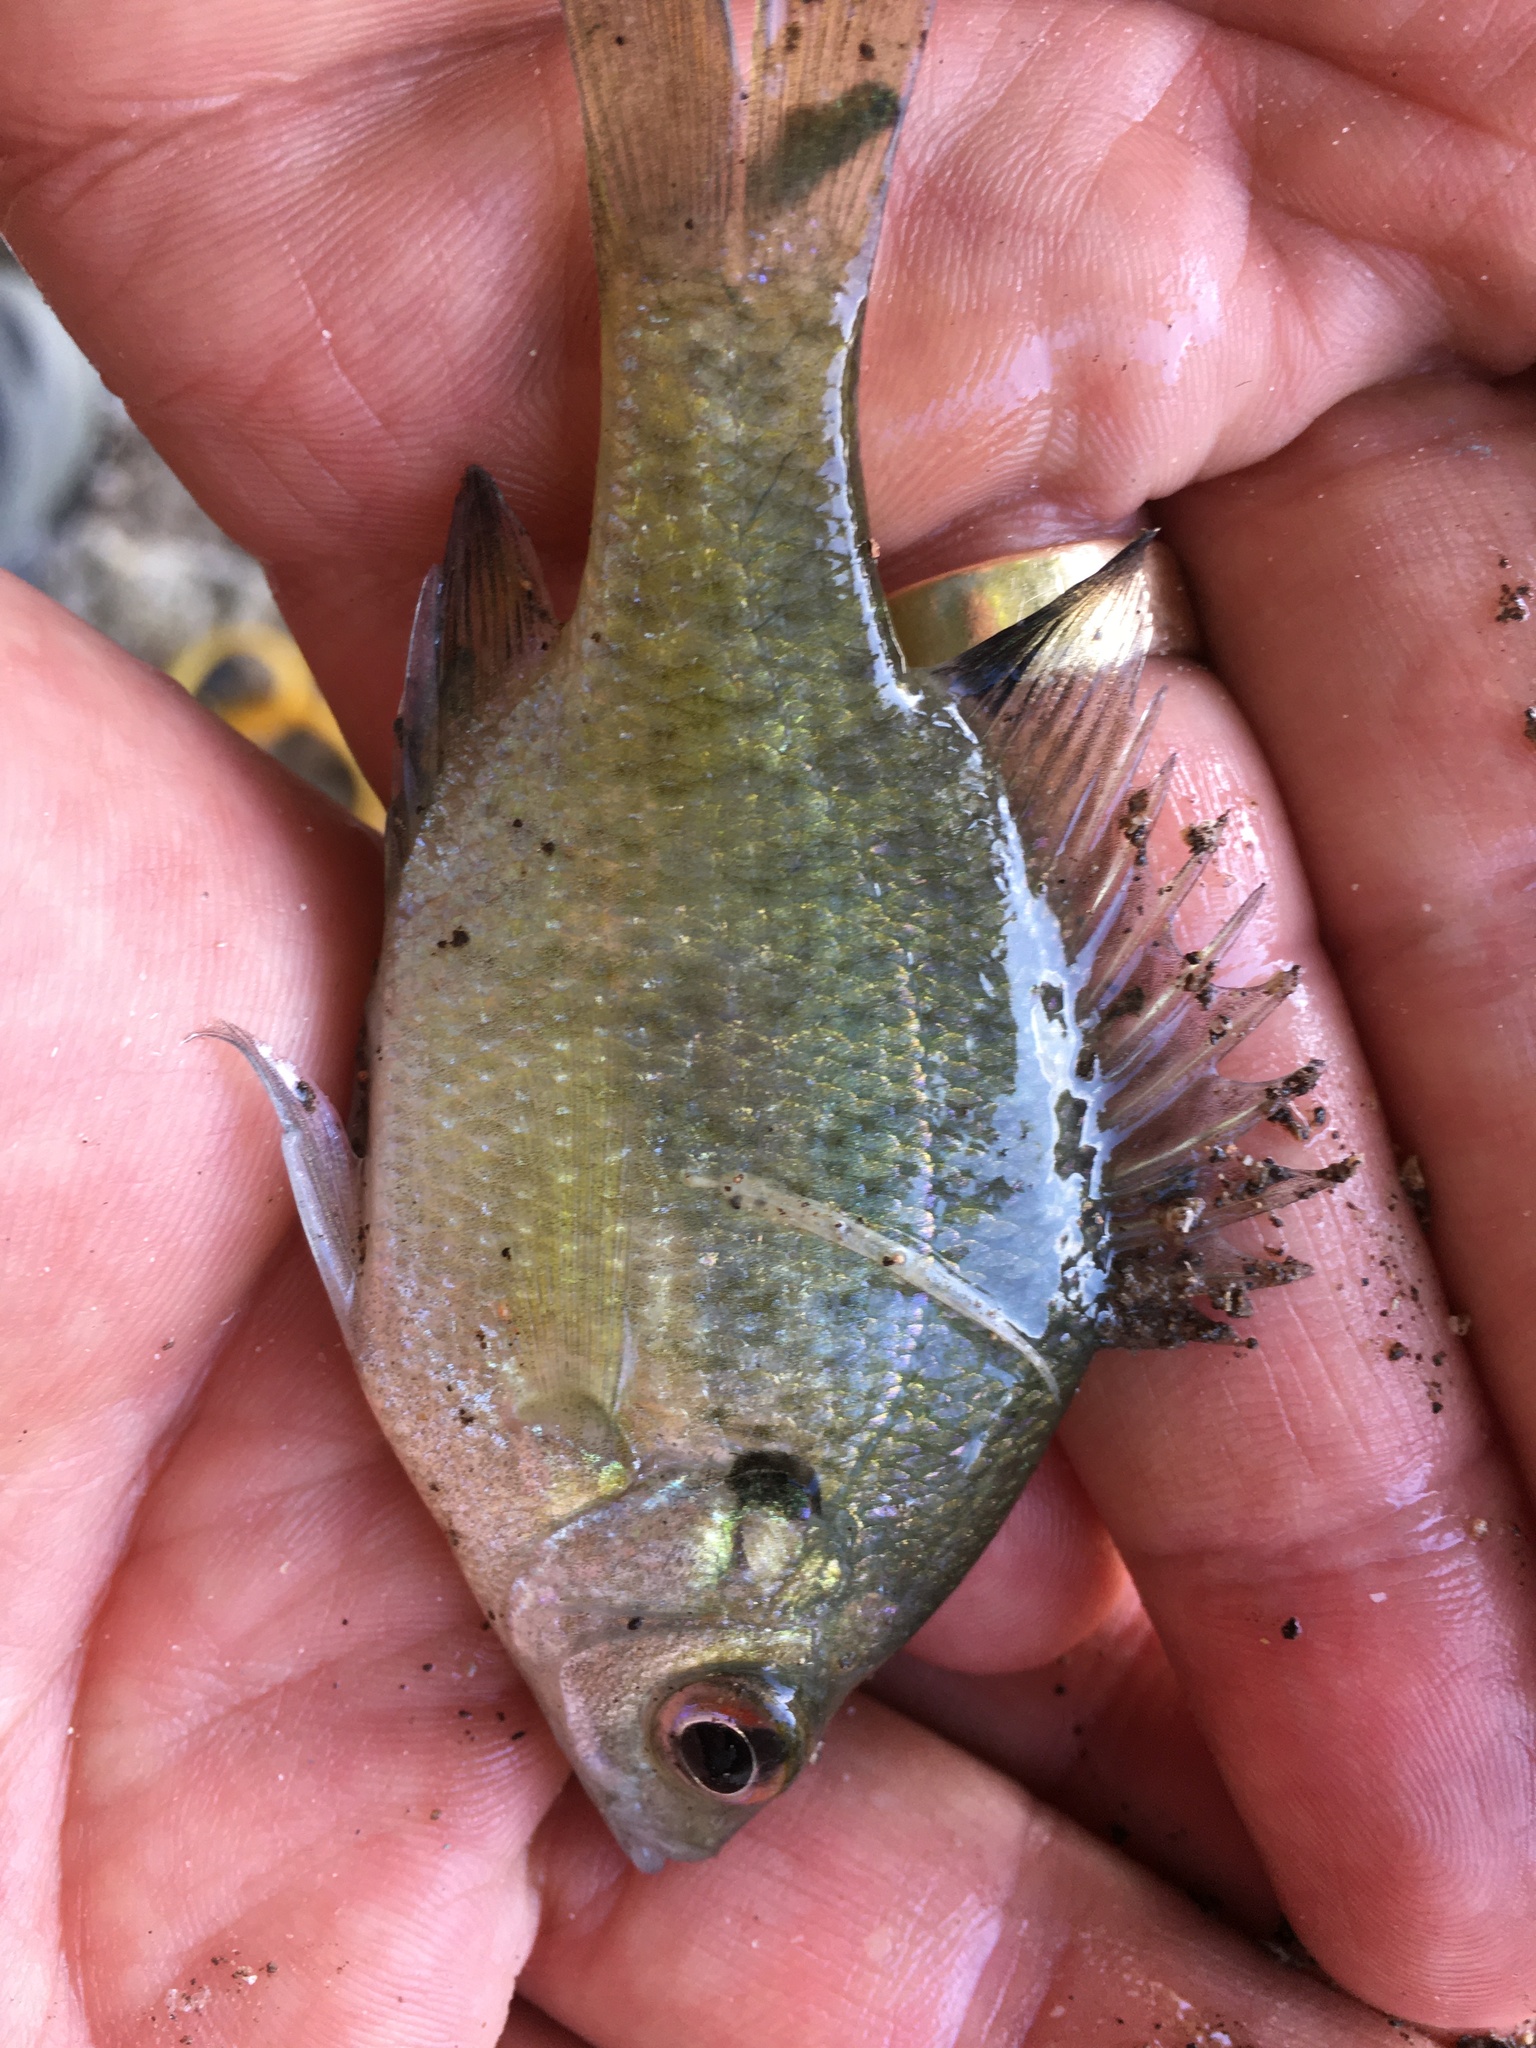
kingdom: Animalia
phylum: Chordata
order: Perciformes
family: Centrarchidae
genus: Lepomis
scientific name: Lepomis macrochirus
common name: Bluegill
